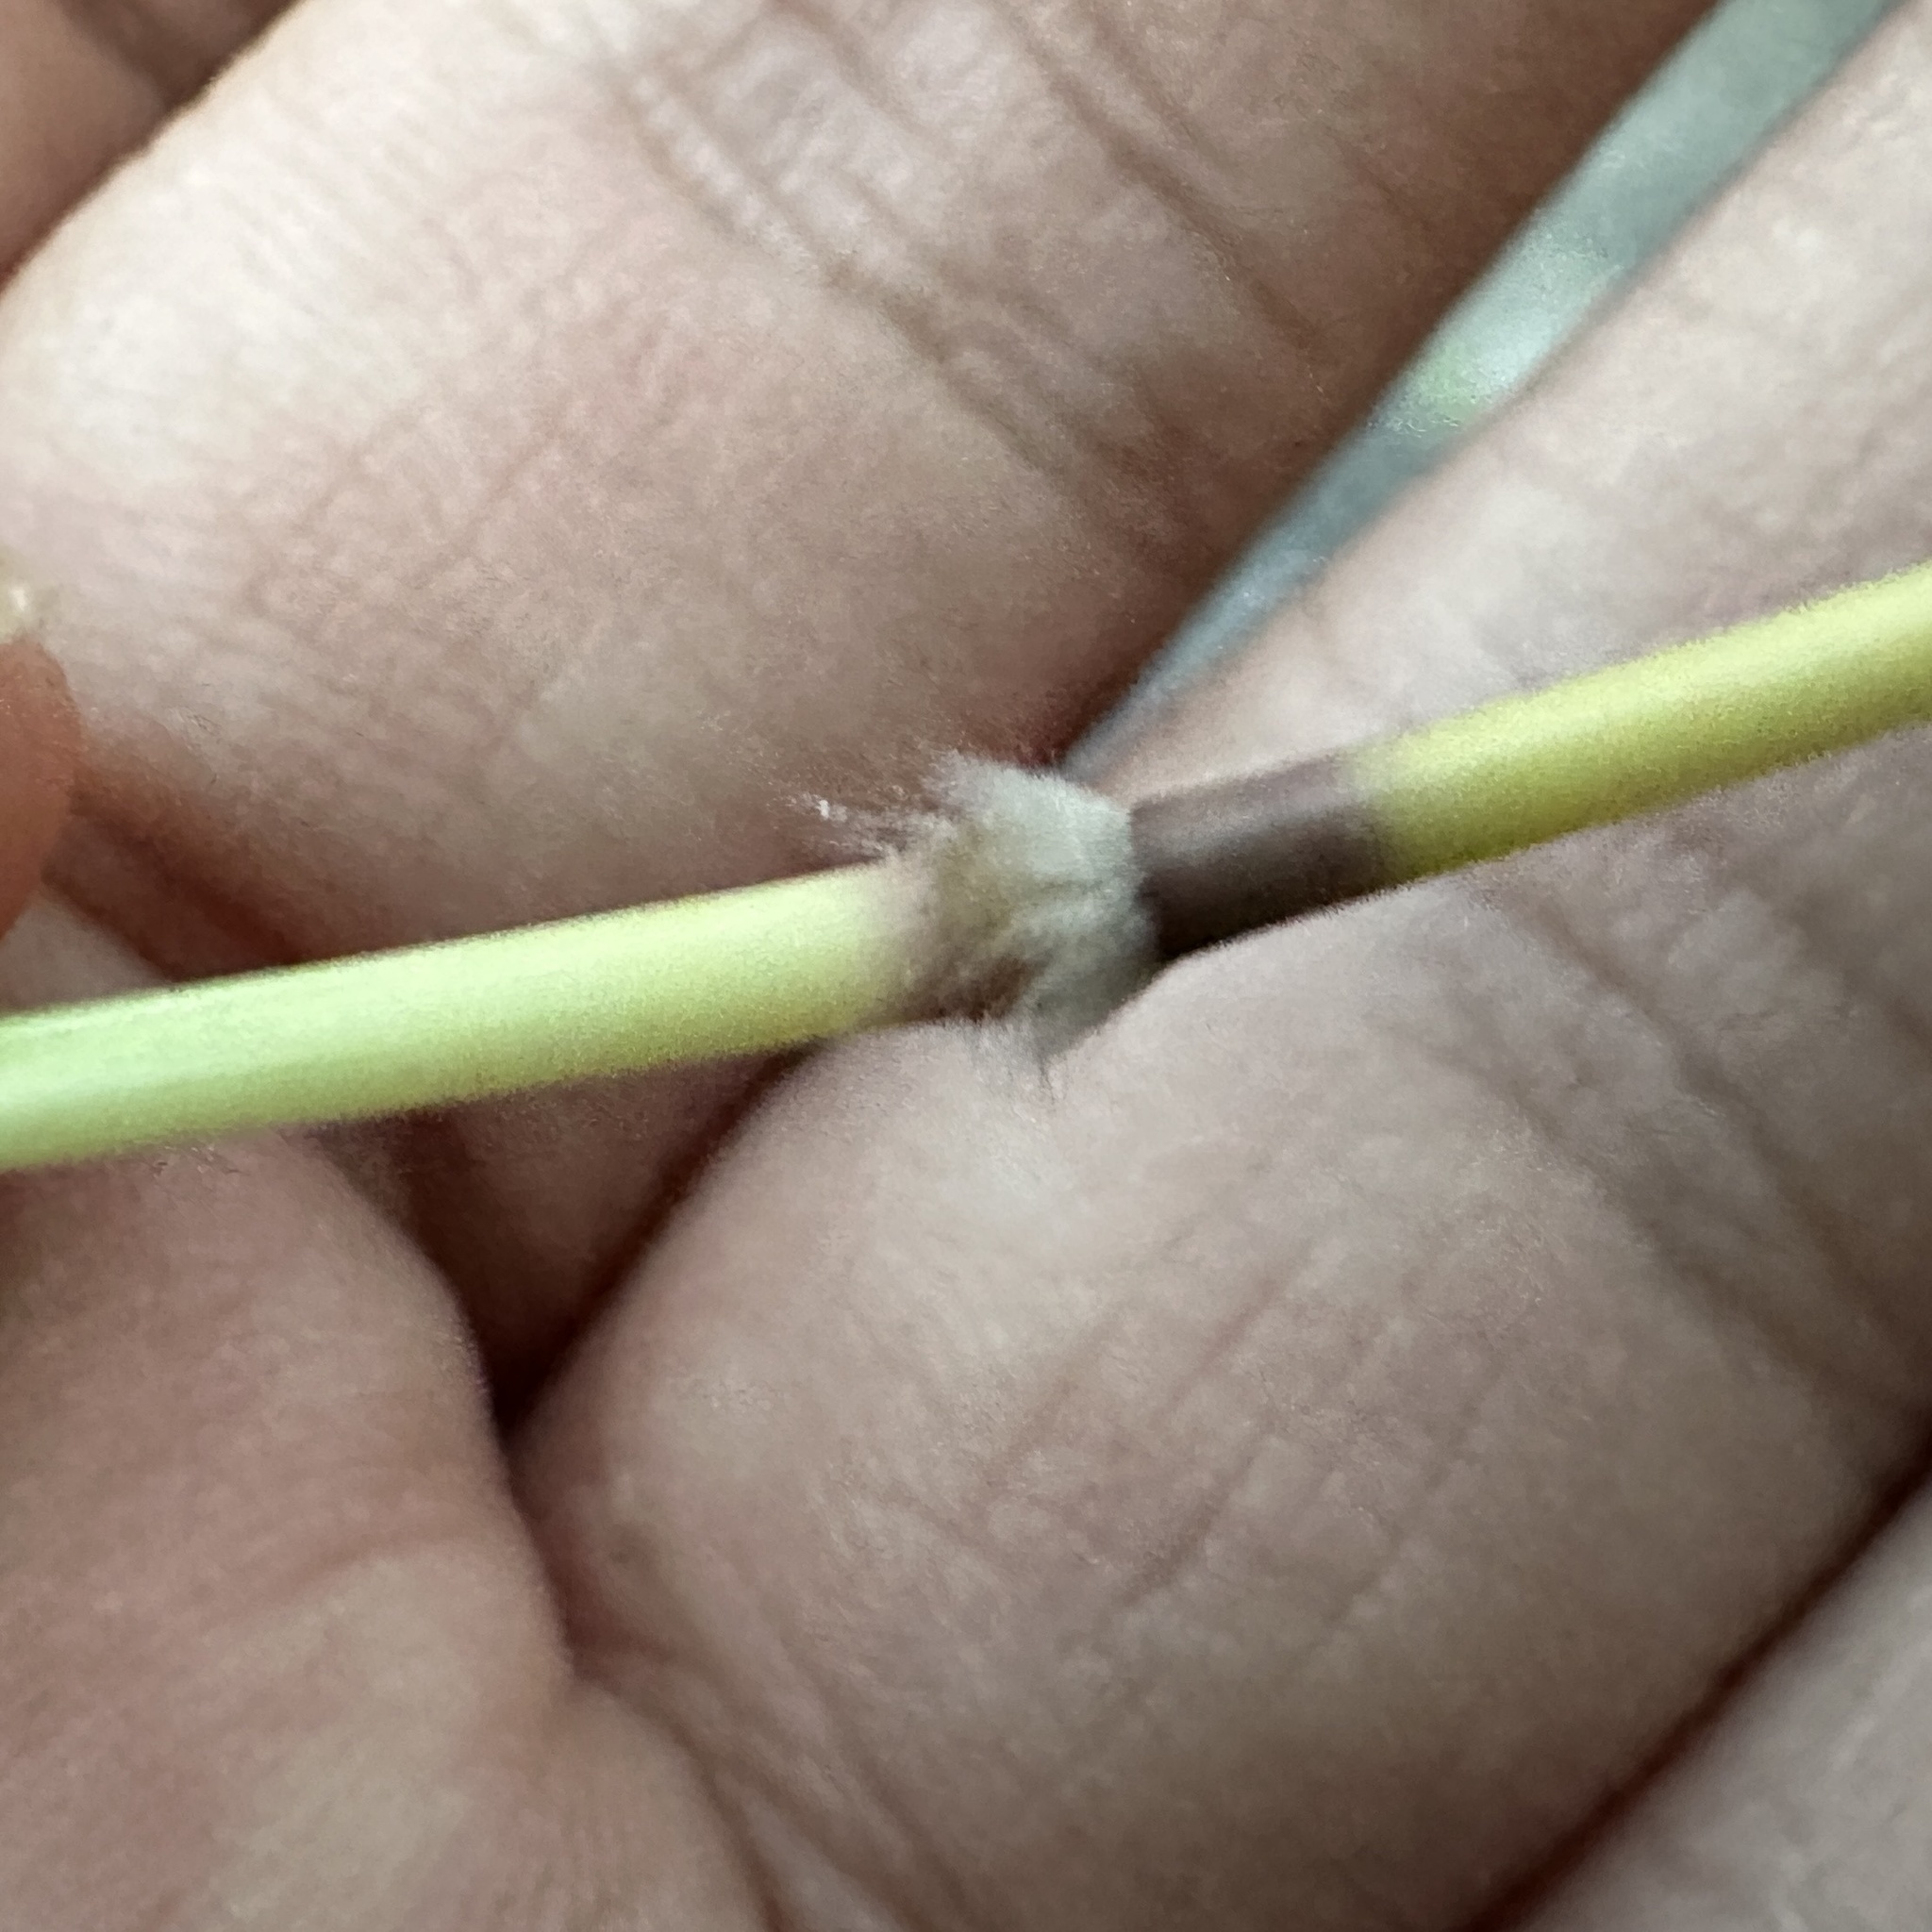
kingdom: Plantae
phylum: Tracheophyta
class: Liliopsida
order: Poales
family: Poaceae
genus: Bothriochloa
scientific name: Bothriochloa bladhii
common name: Caucasian bluestem
